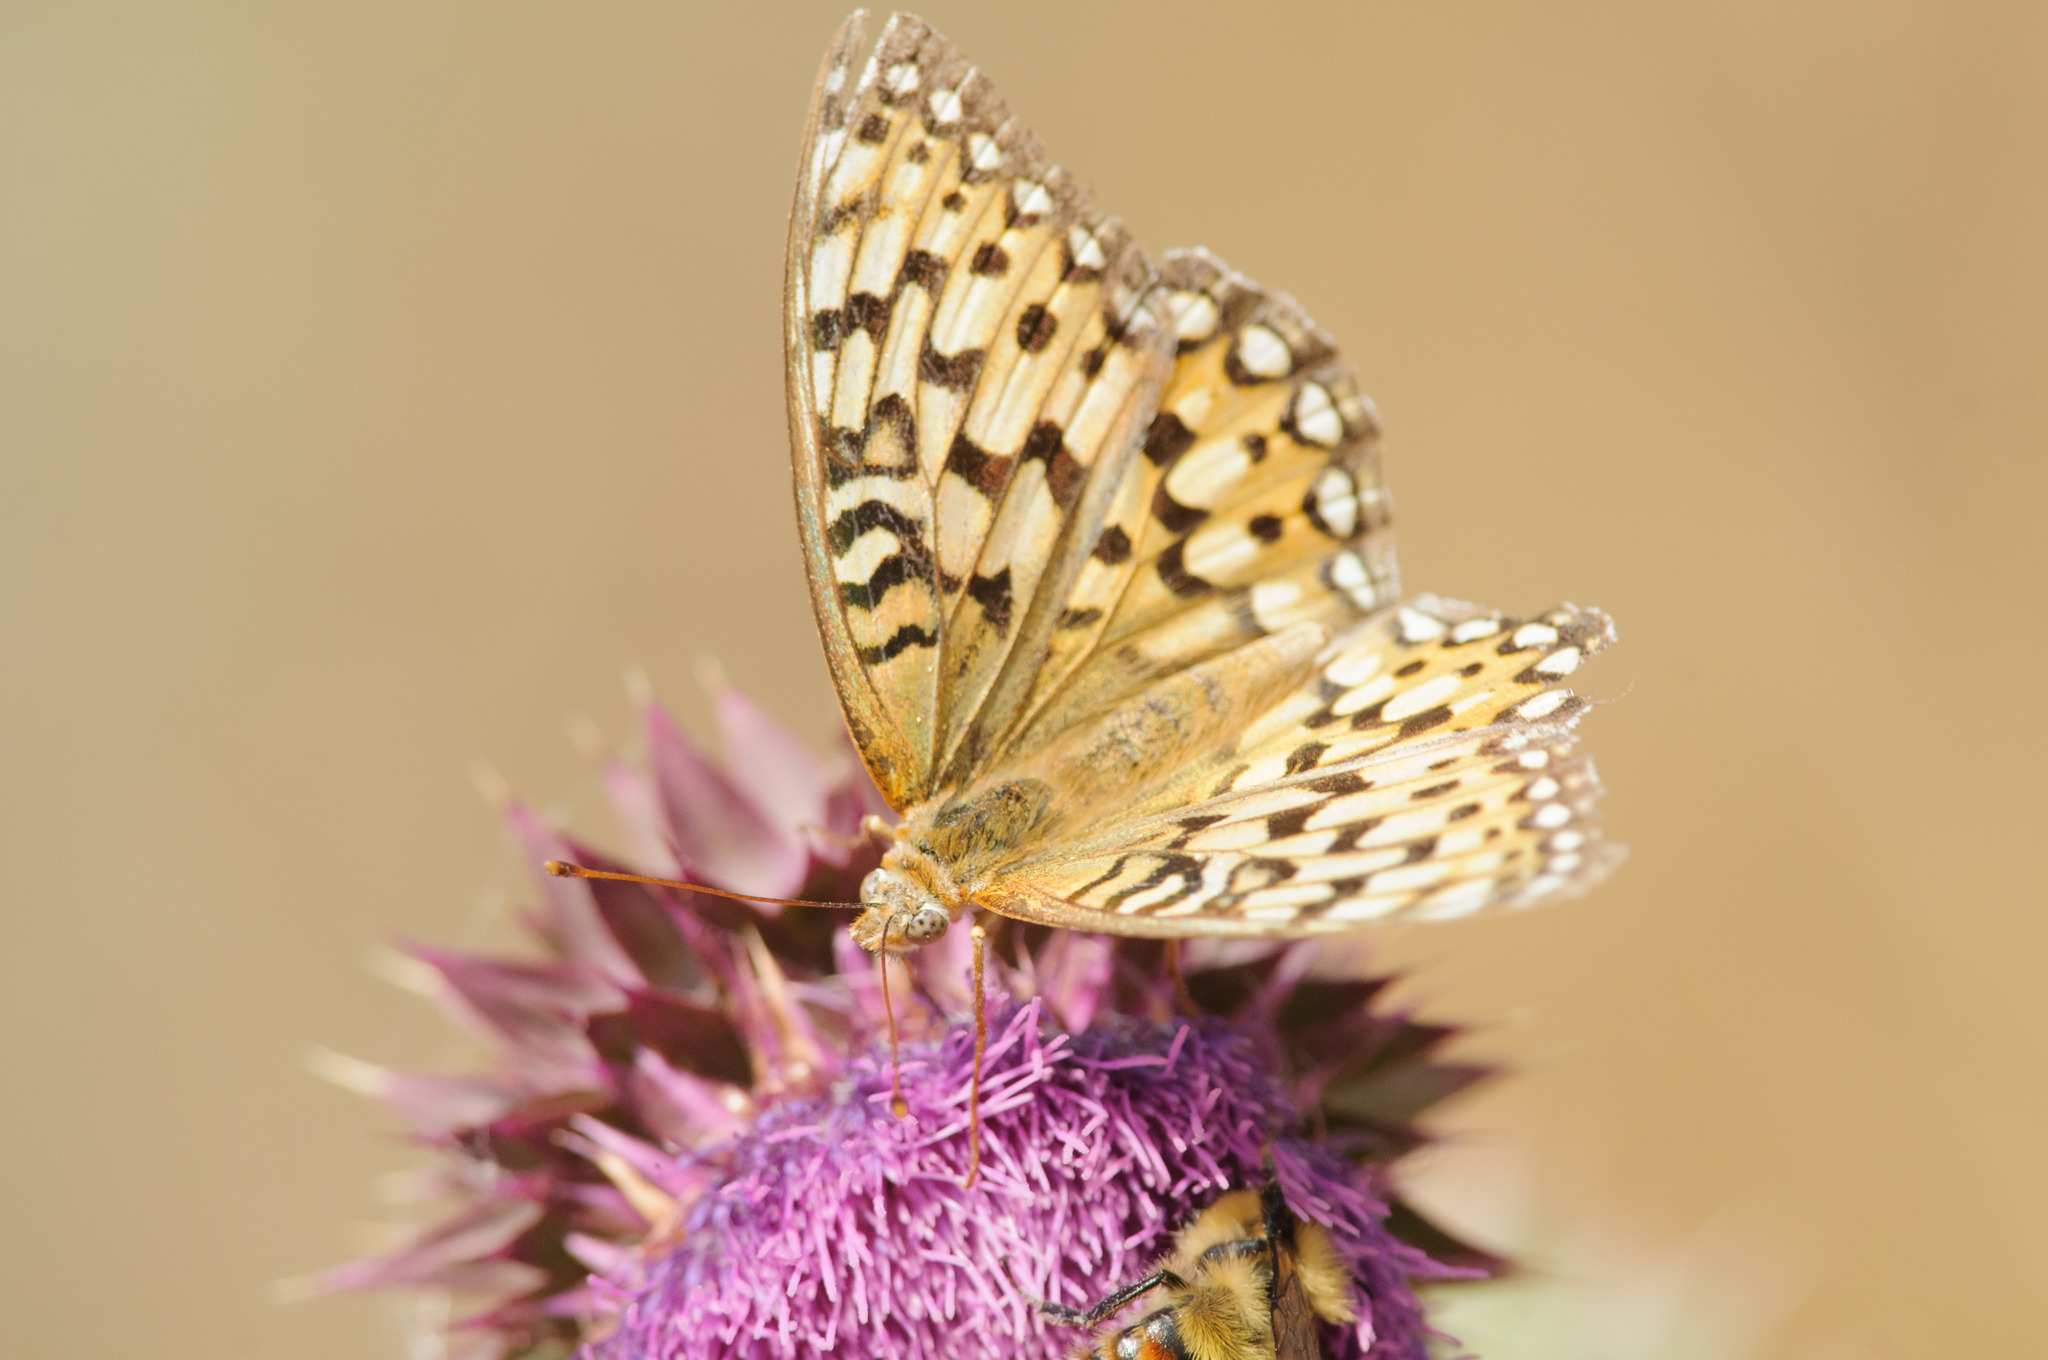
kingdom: Animalia
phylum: Arthropoda
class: Insecta
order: Lepidoptera
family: Nymphalidae
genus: Speyeria
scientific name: Speyeria callippe
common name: Callippe fritillary
